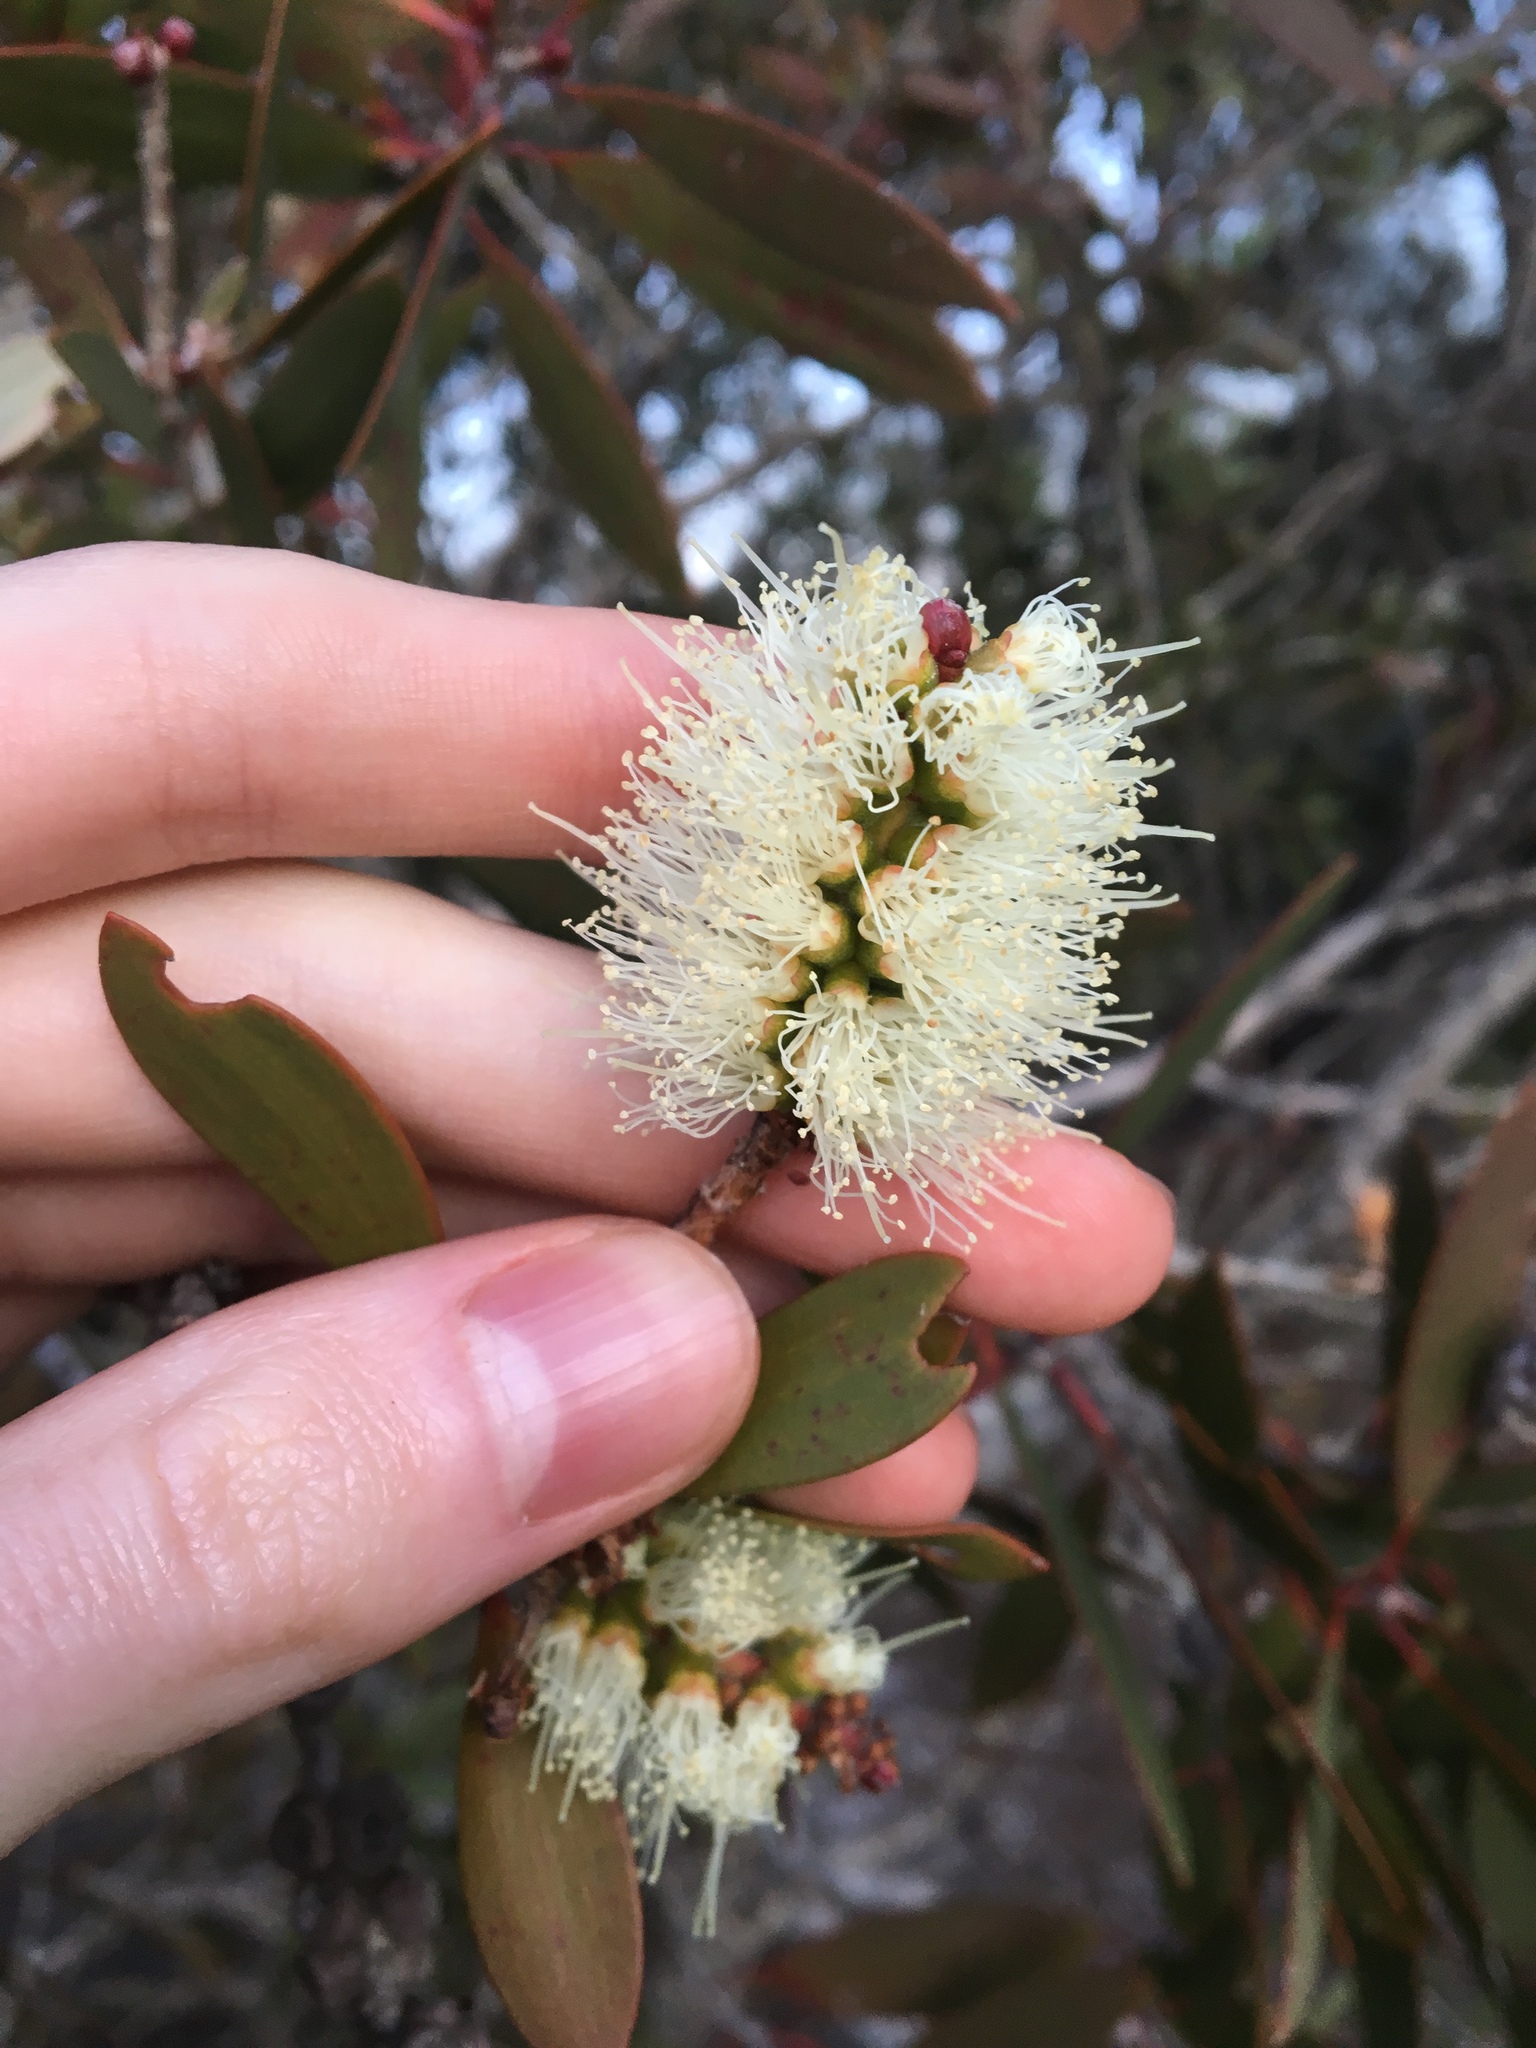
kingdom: Plantae
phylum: Tracheophyta
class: Magnoliopsida
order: Myrtales
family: Myrtaceae
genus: Melaleuca
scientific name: Melaleuca quinquenervia
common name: Punktree
